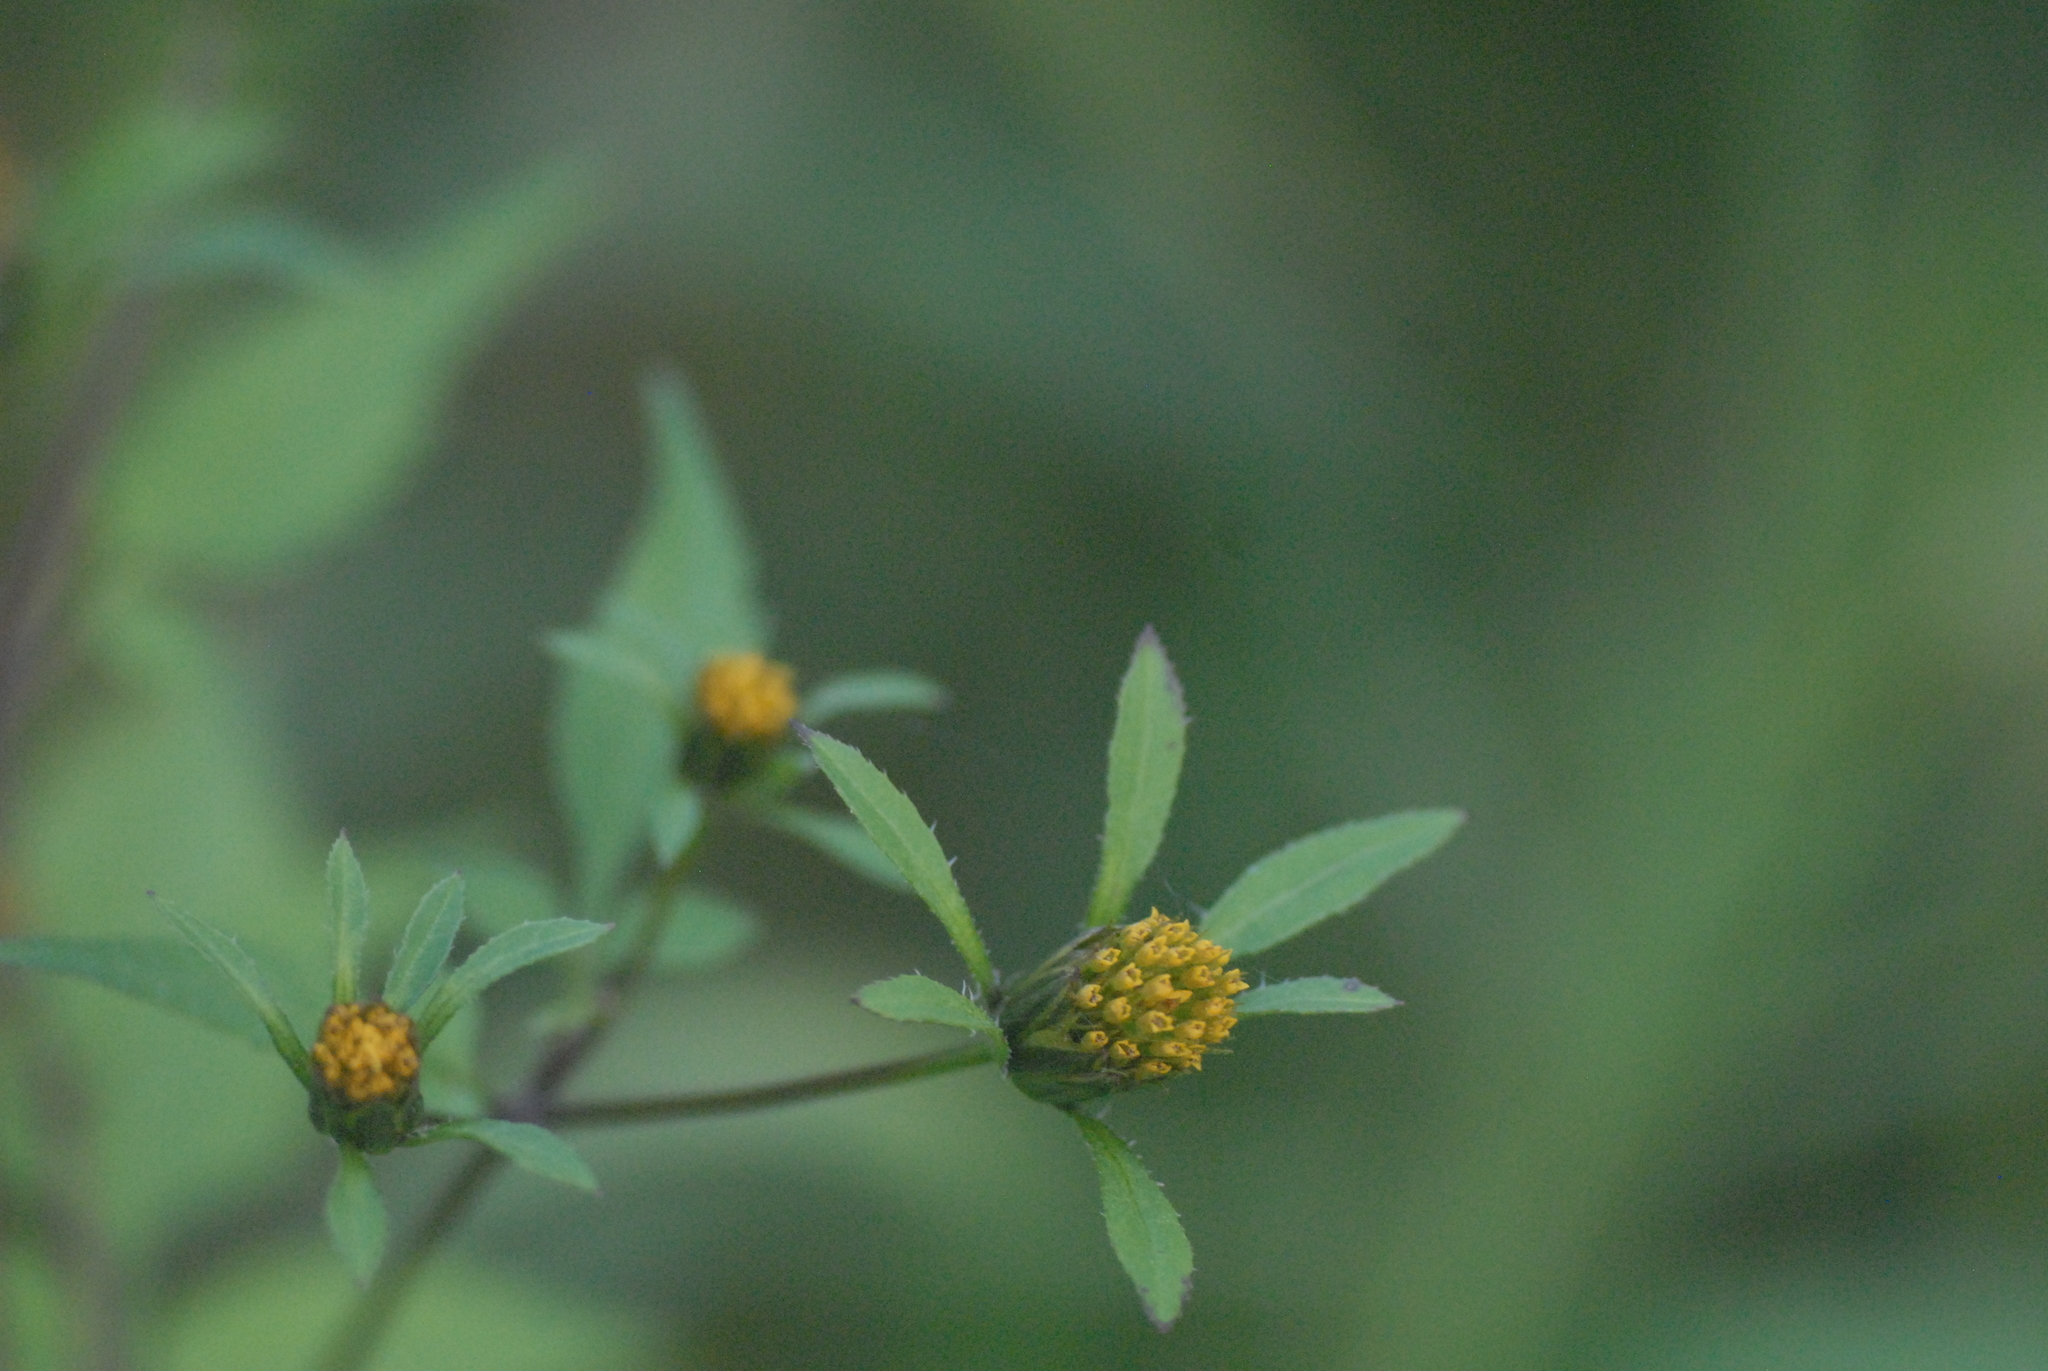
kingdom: Plantae
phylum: Tracheophyta
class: Magnoliopsida
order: Asterales
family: Asteraceae
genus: Bidens
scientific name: Bidens frondosa
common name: Beggarticks
